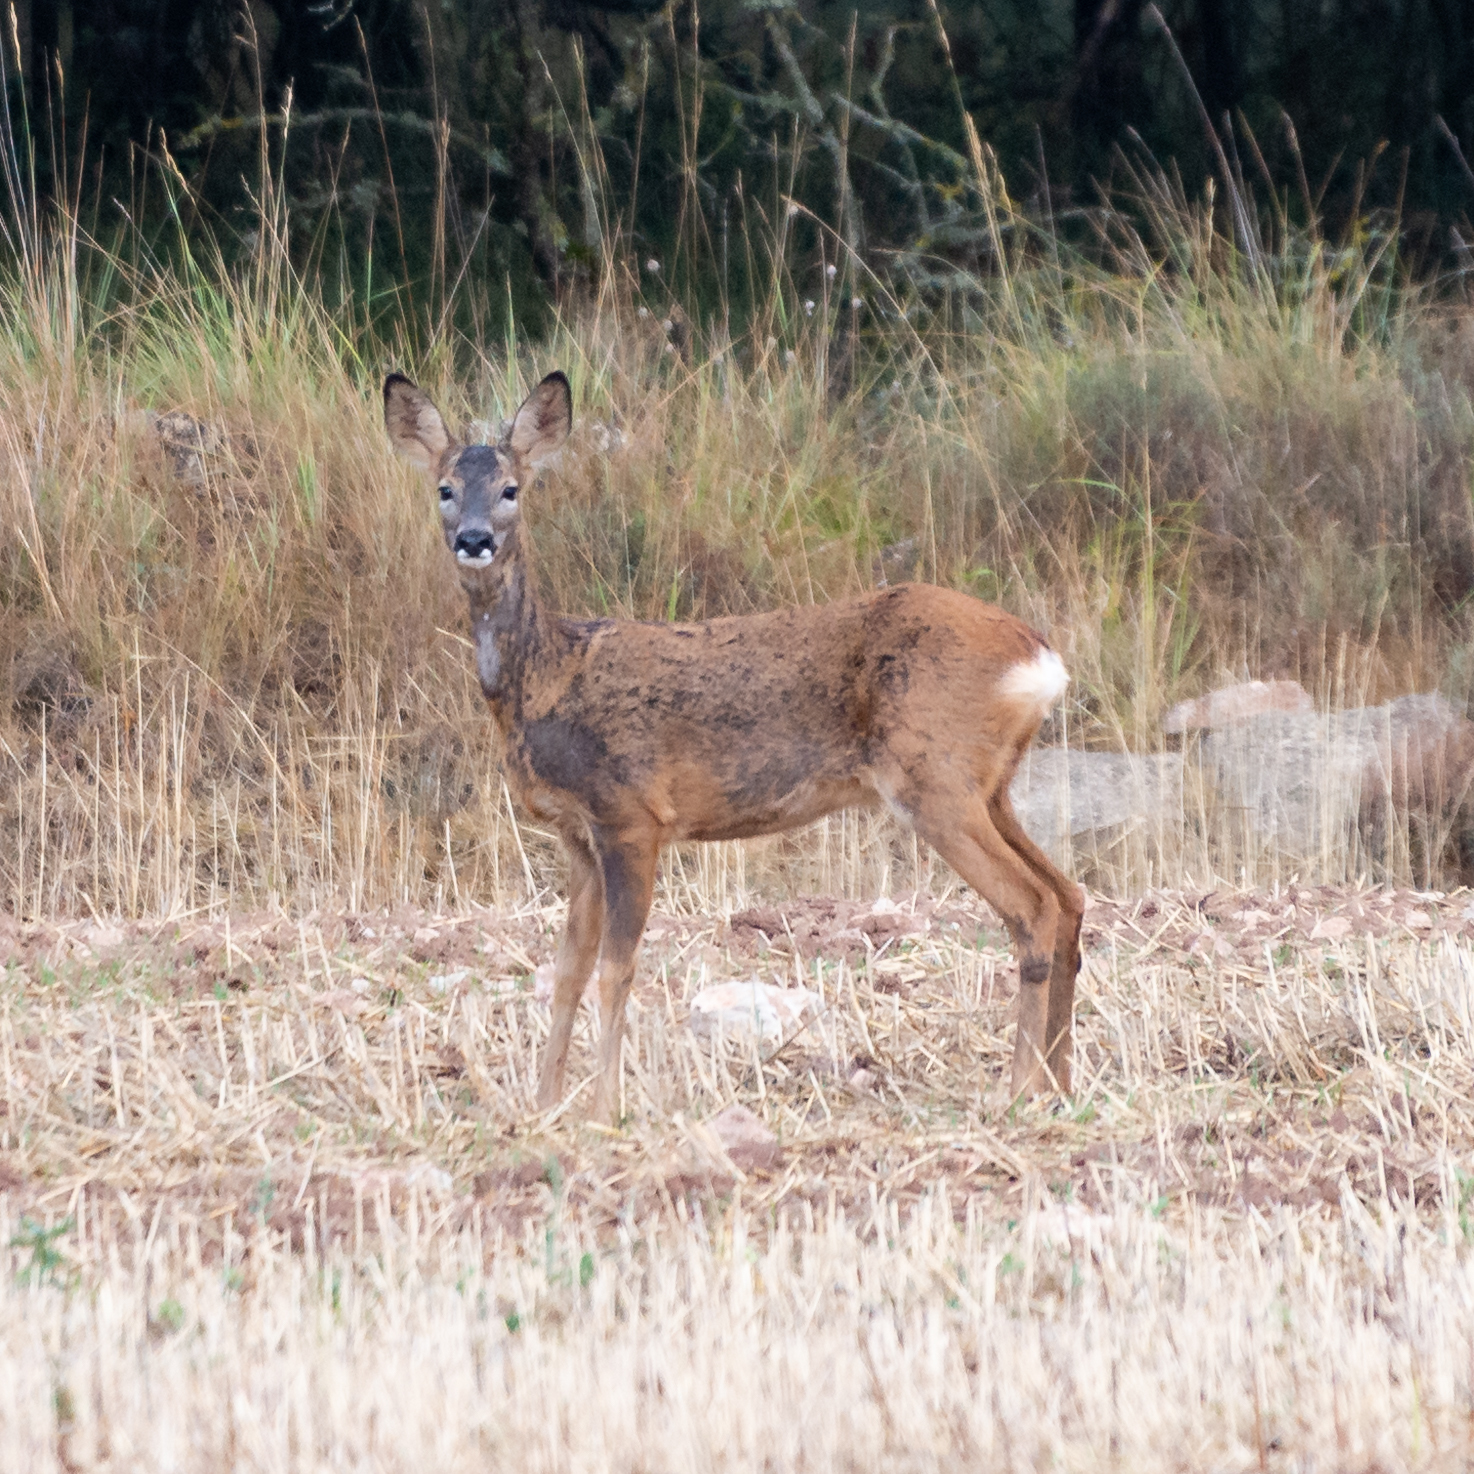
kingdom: Animalia
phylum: Chordata
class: Mammalia
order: Artiodactyla
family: Cervidae
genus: Capreolus
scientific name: Capreolus capreolus
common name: Western roe deer
